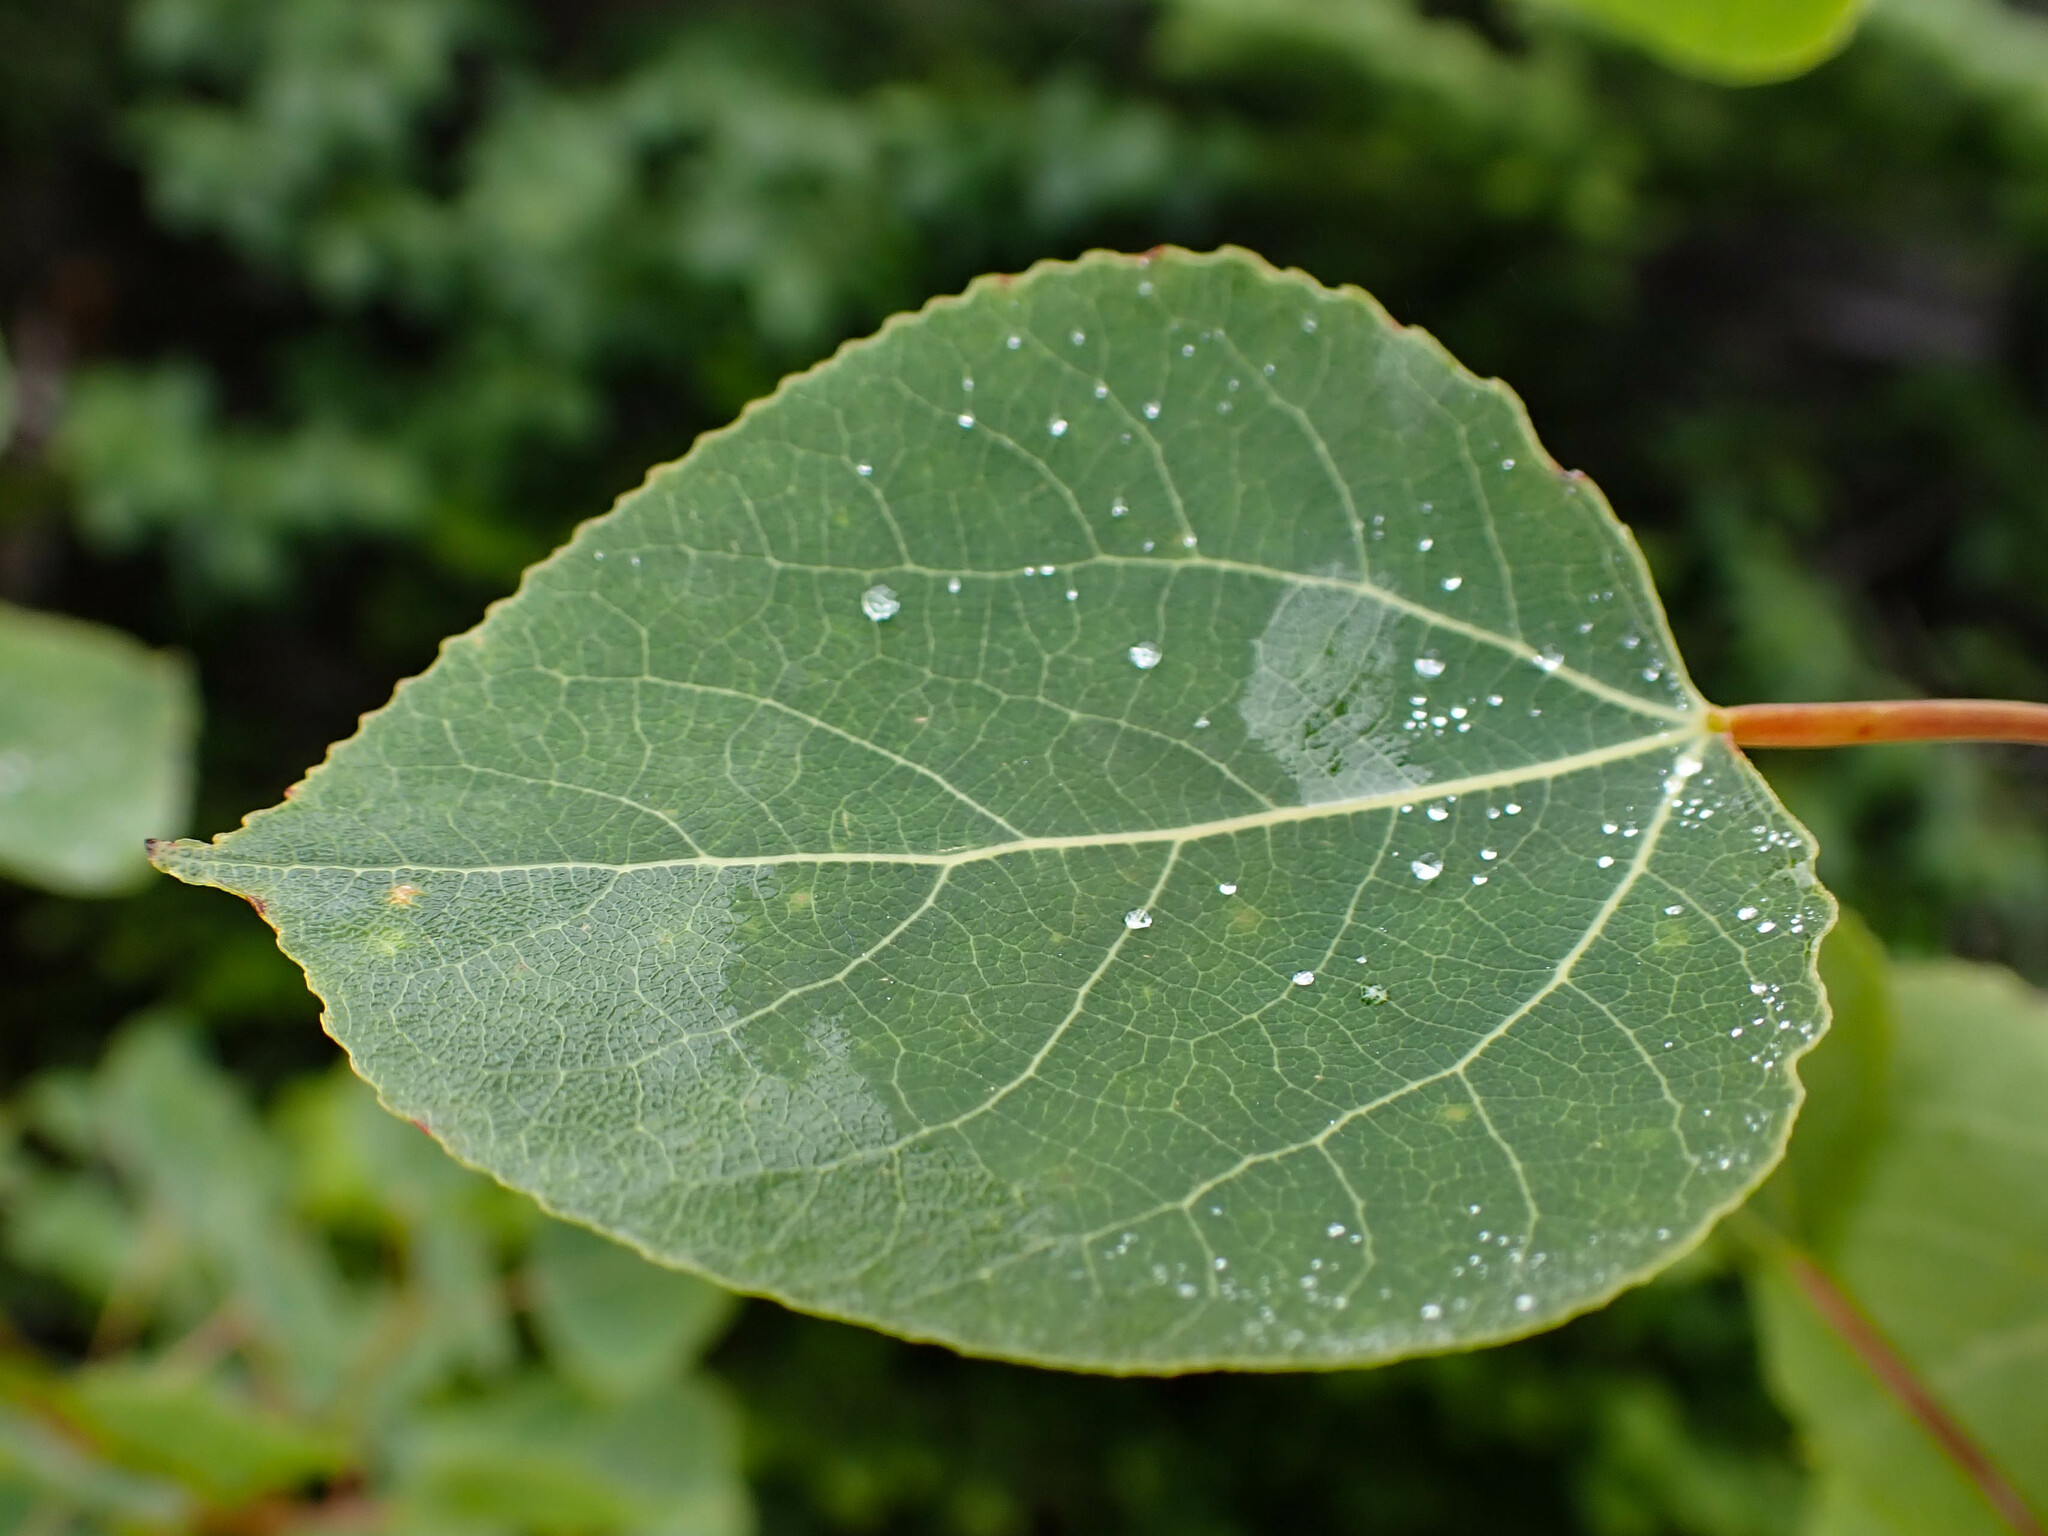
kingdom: Plantae
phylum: Tracheophyta
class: Magnoliopsida
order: Malpighiales
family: Salicaceae
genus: Populus
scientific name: Populus tremuloides
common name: Quaking aspen
